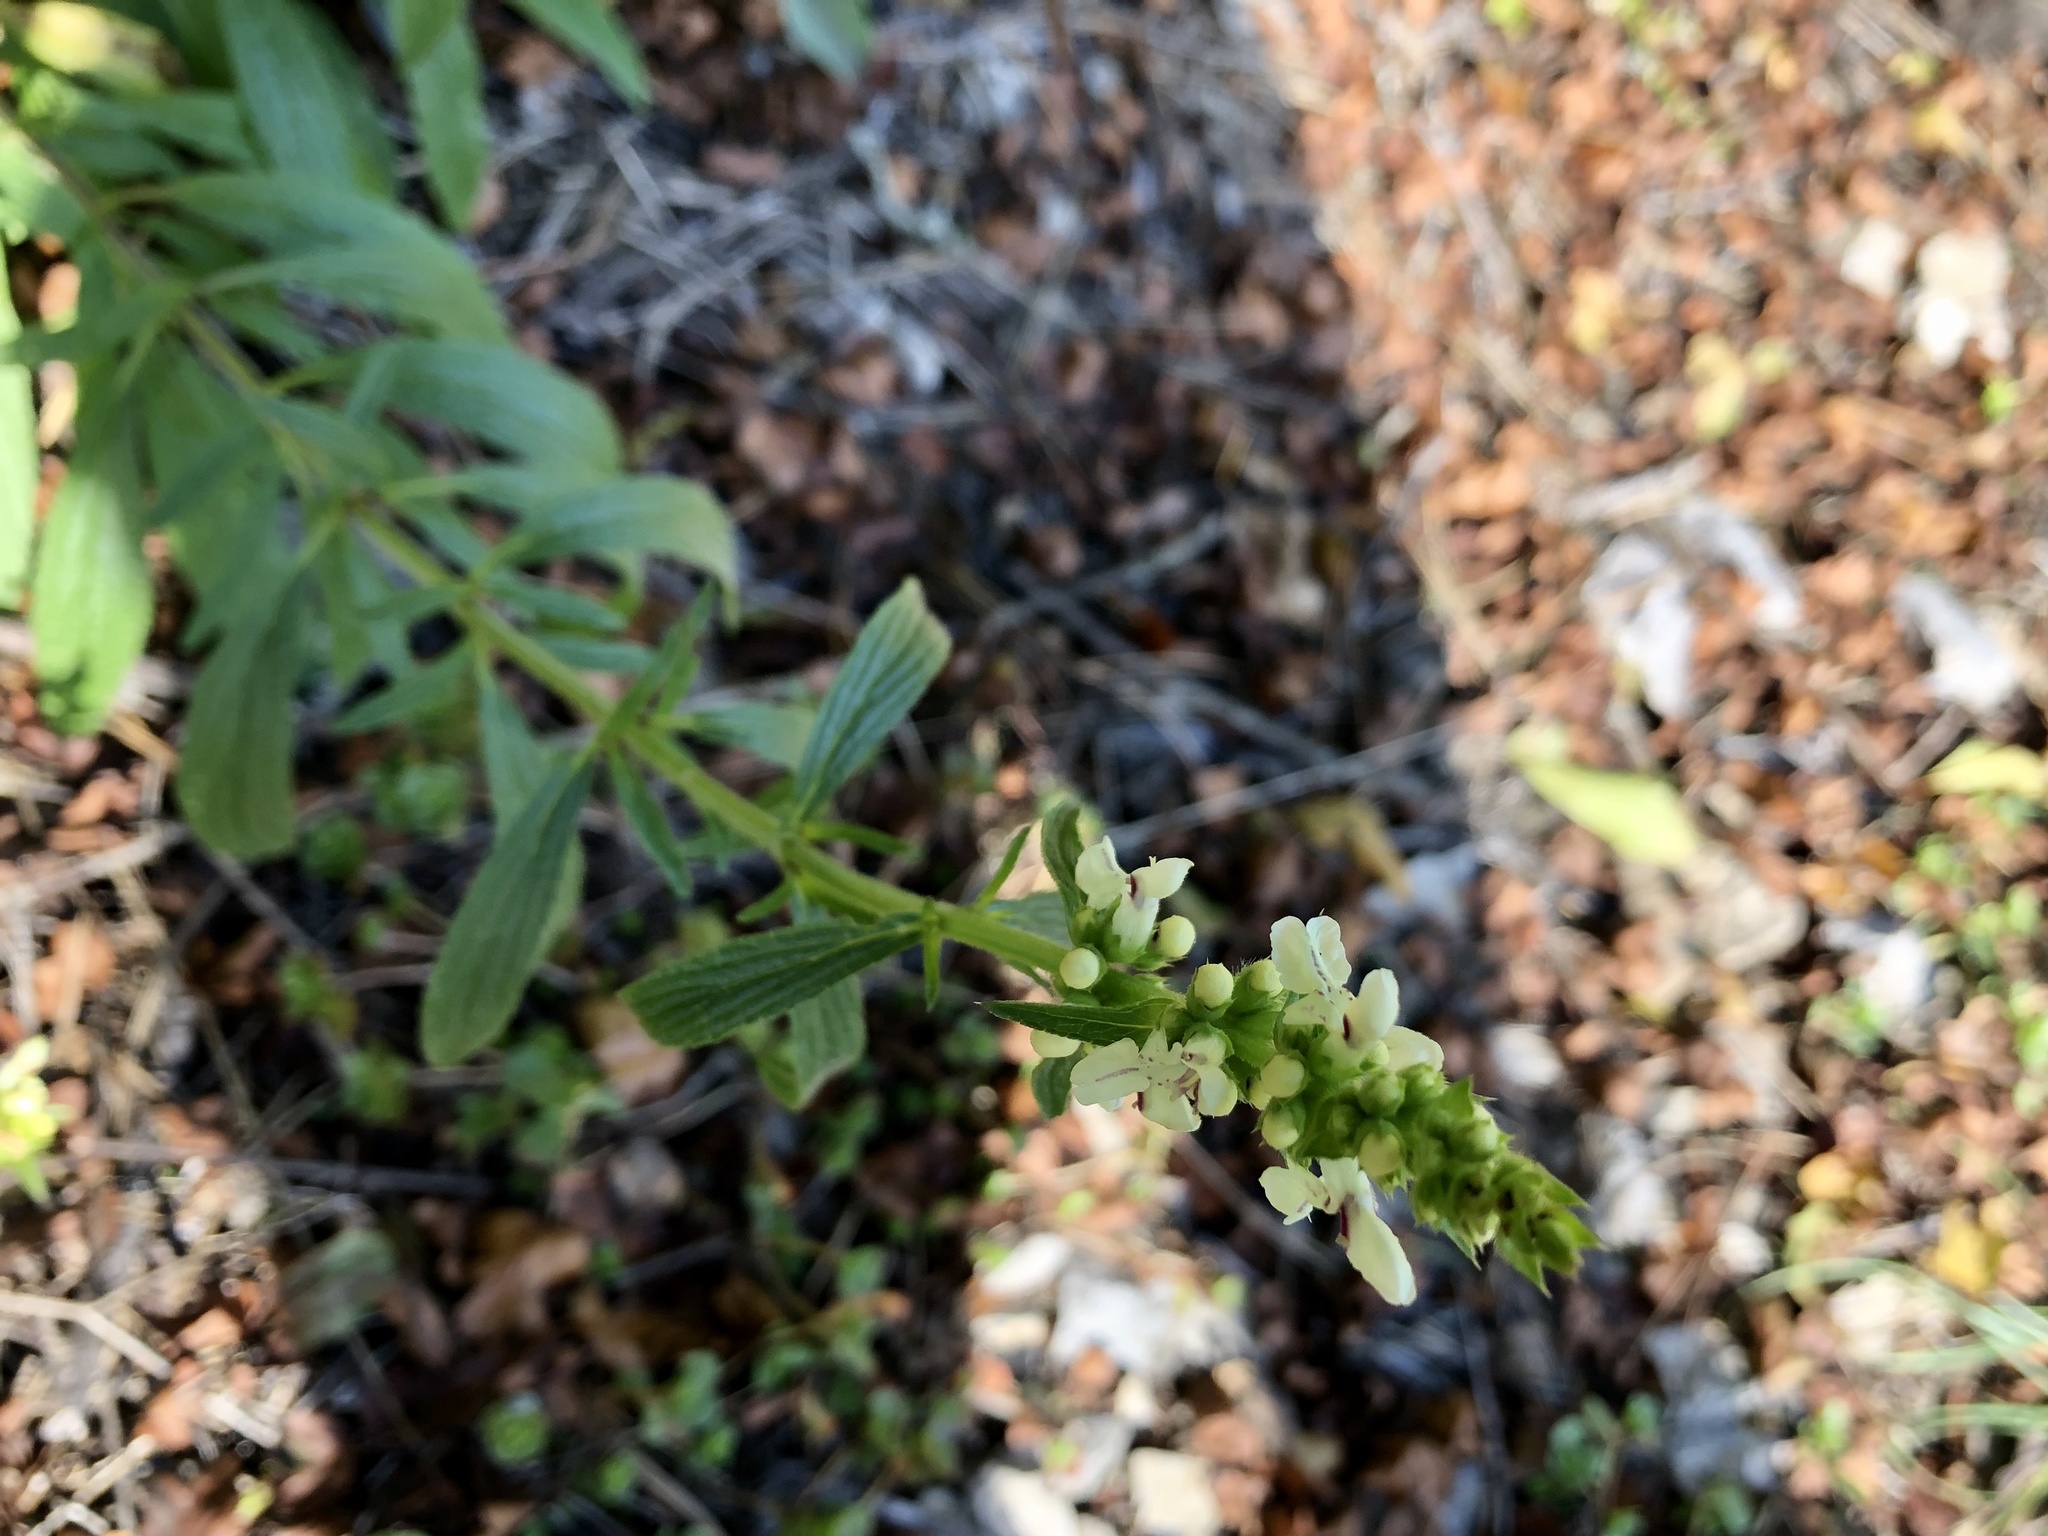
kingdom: Plantae
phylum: Tracheophyta
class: Magnoliopsida
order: Lamiales
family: Lamiaceae
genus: Stachys
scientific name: Stachys recta
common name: Perennial yellow-woundwort
